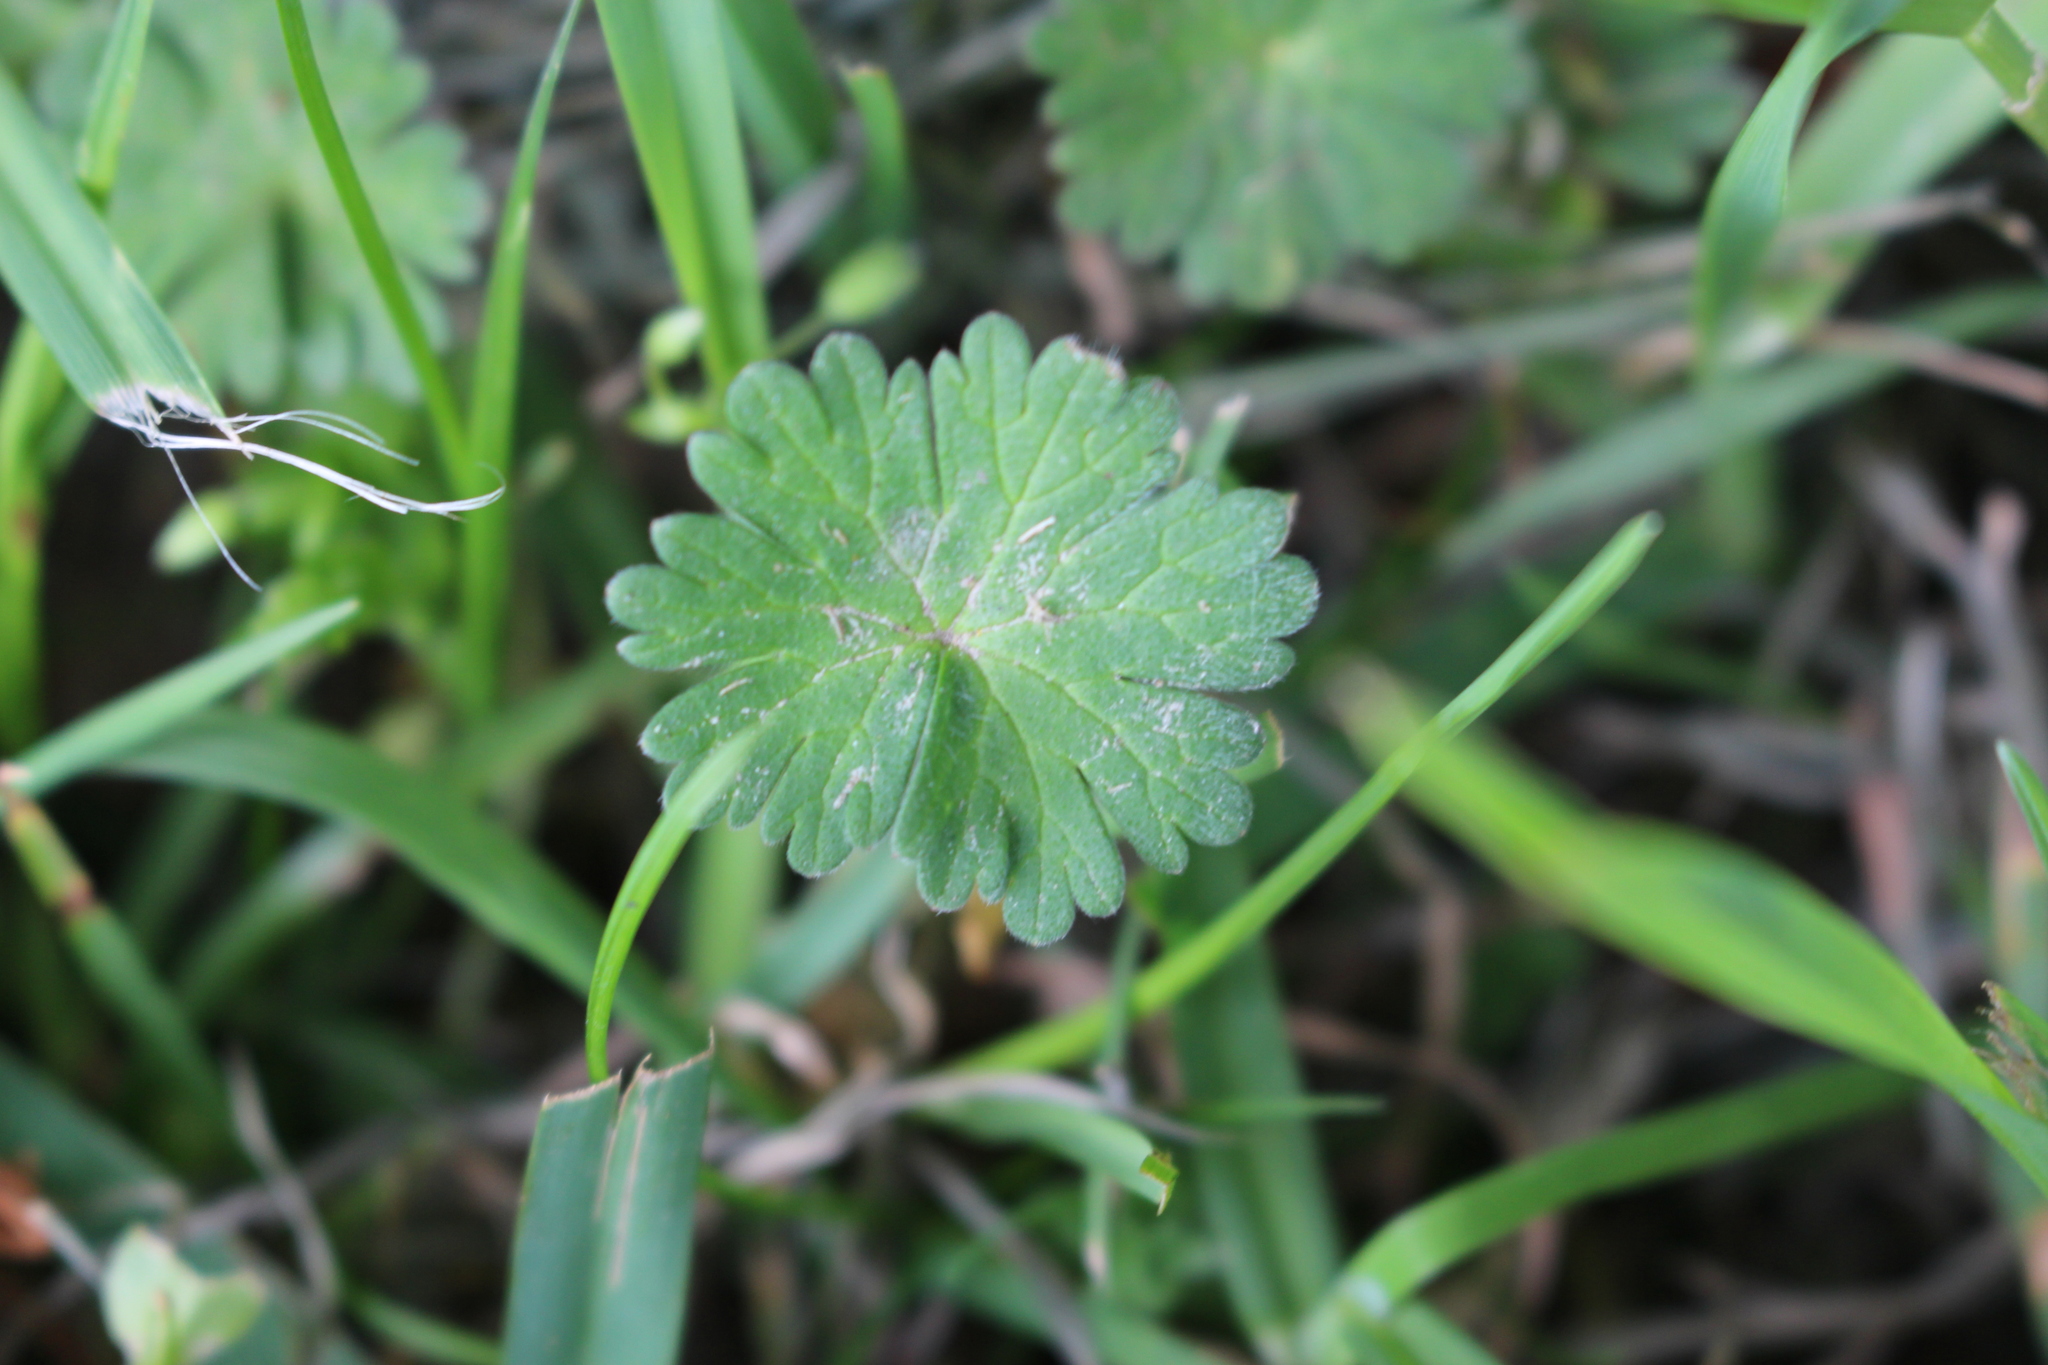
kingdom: Plantae
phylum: Tracheophyta
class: Magnoliopsida
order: Geraniales
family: Geraniaceae
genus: Geranium
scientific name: Geranium molle
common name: Dove's-foot crane's-bill
